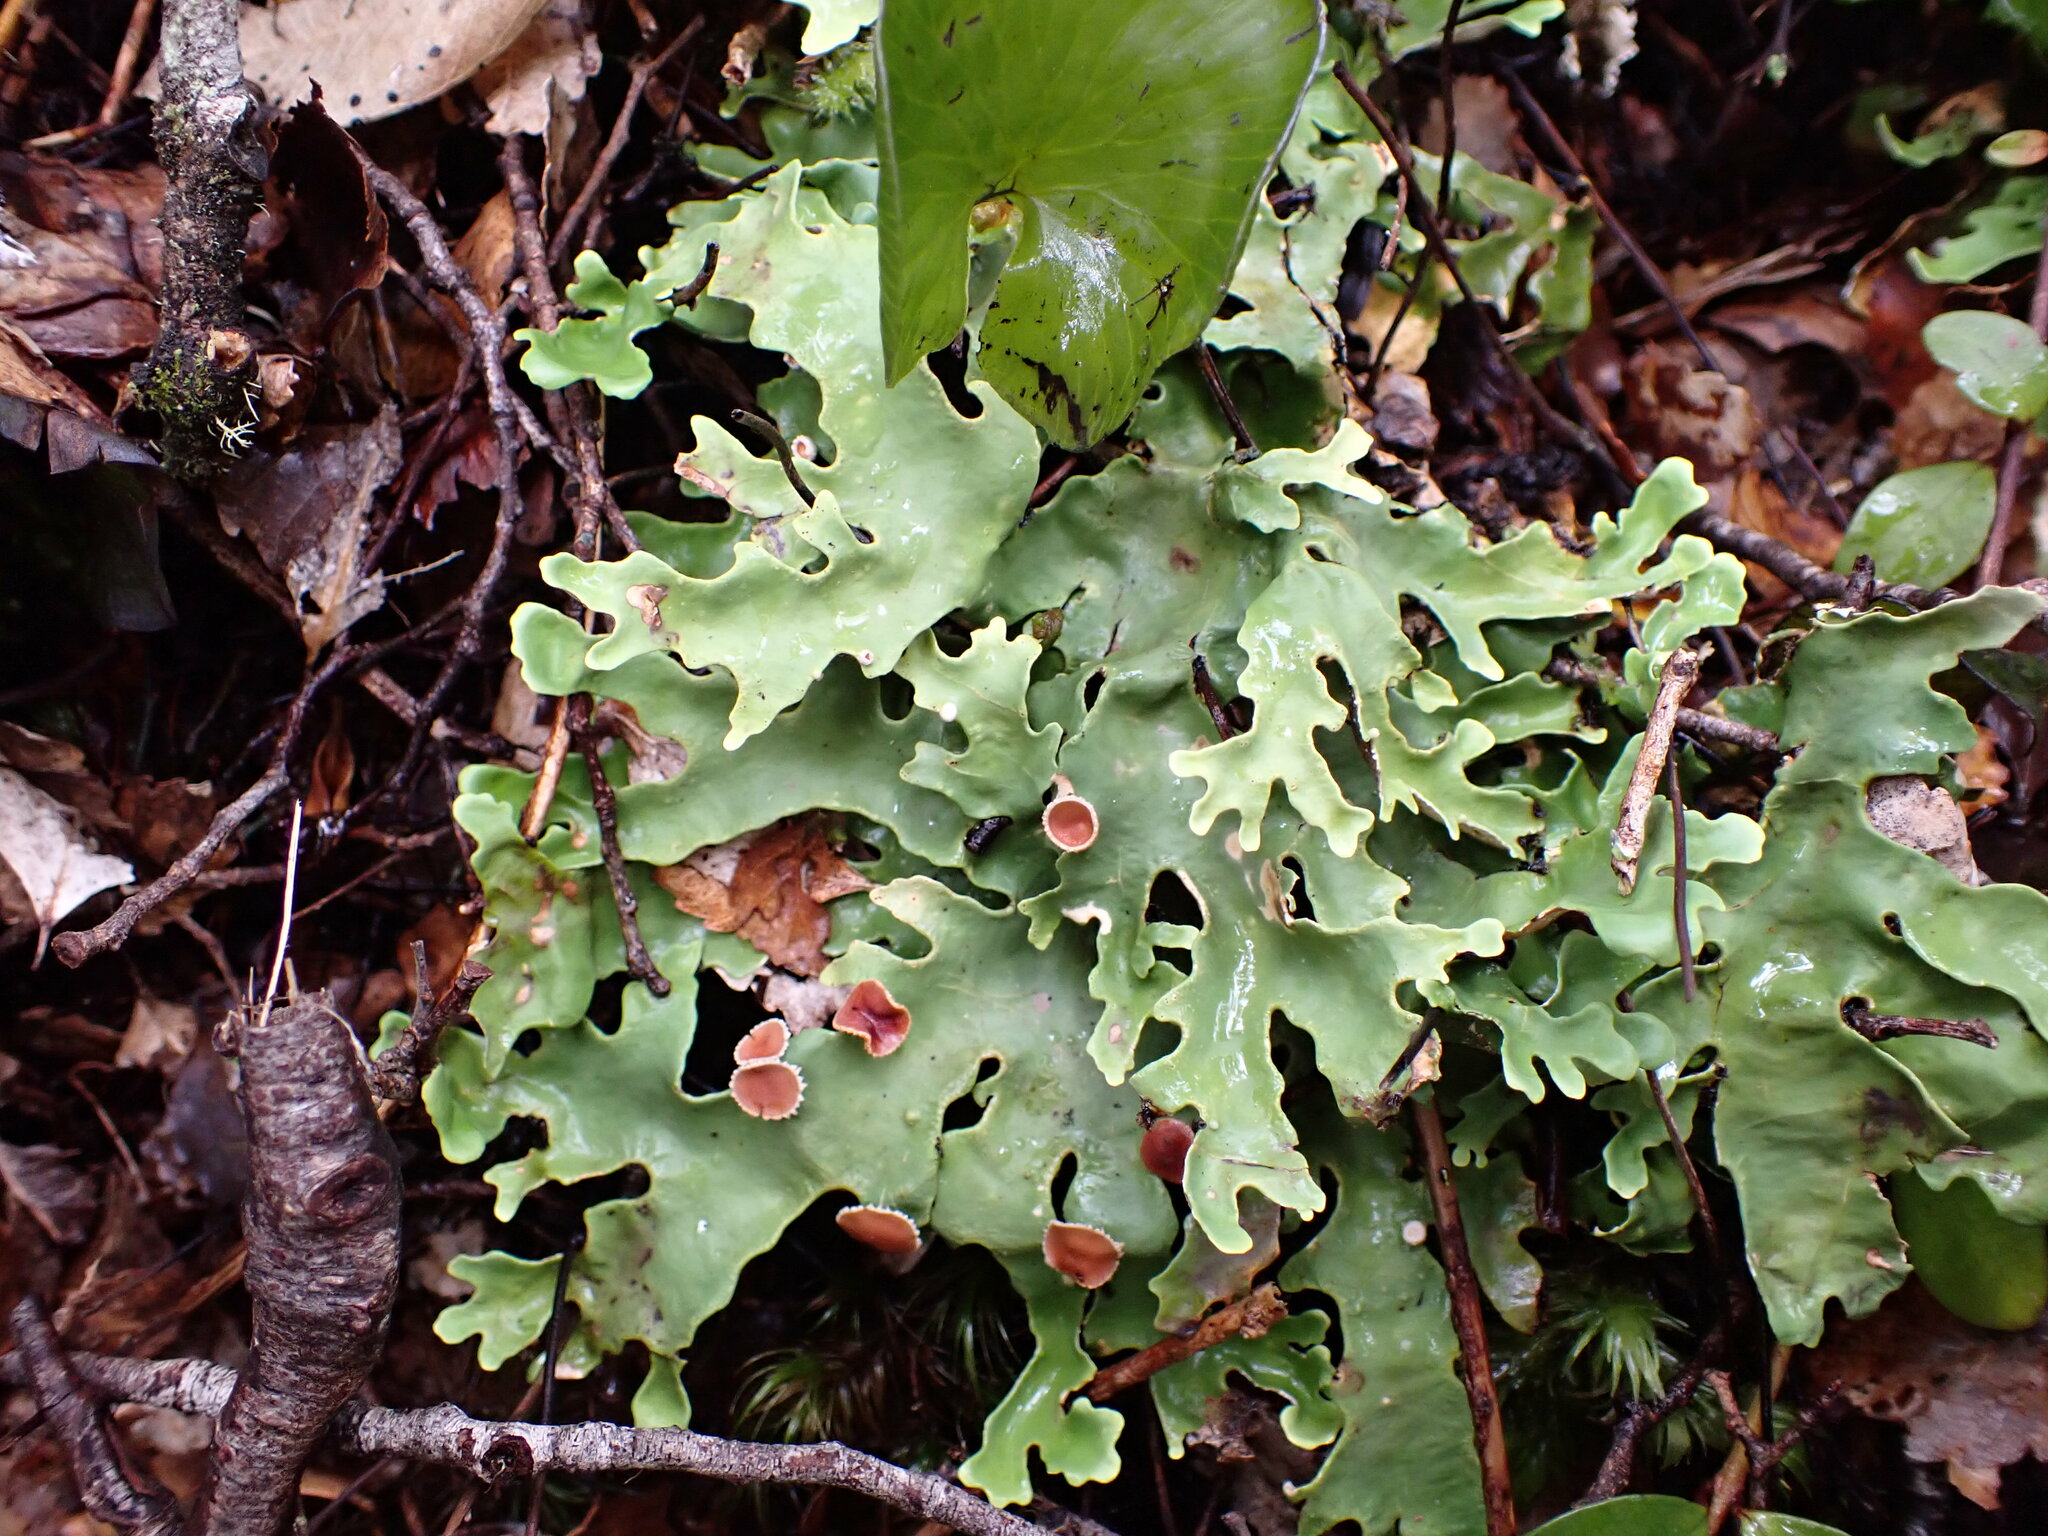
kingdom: Fungi
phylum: Ascomycota
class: Lecanoromycetes
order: Peltigerales
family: Lobariaceae
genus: Pseudocyphellaria
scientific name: Pseudocyphellaria homeophylla
